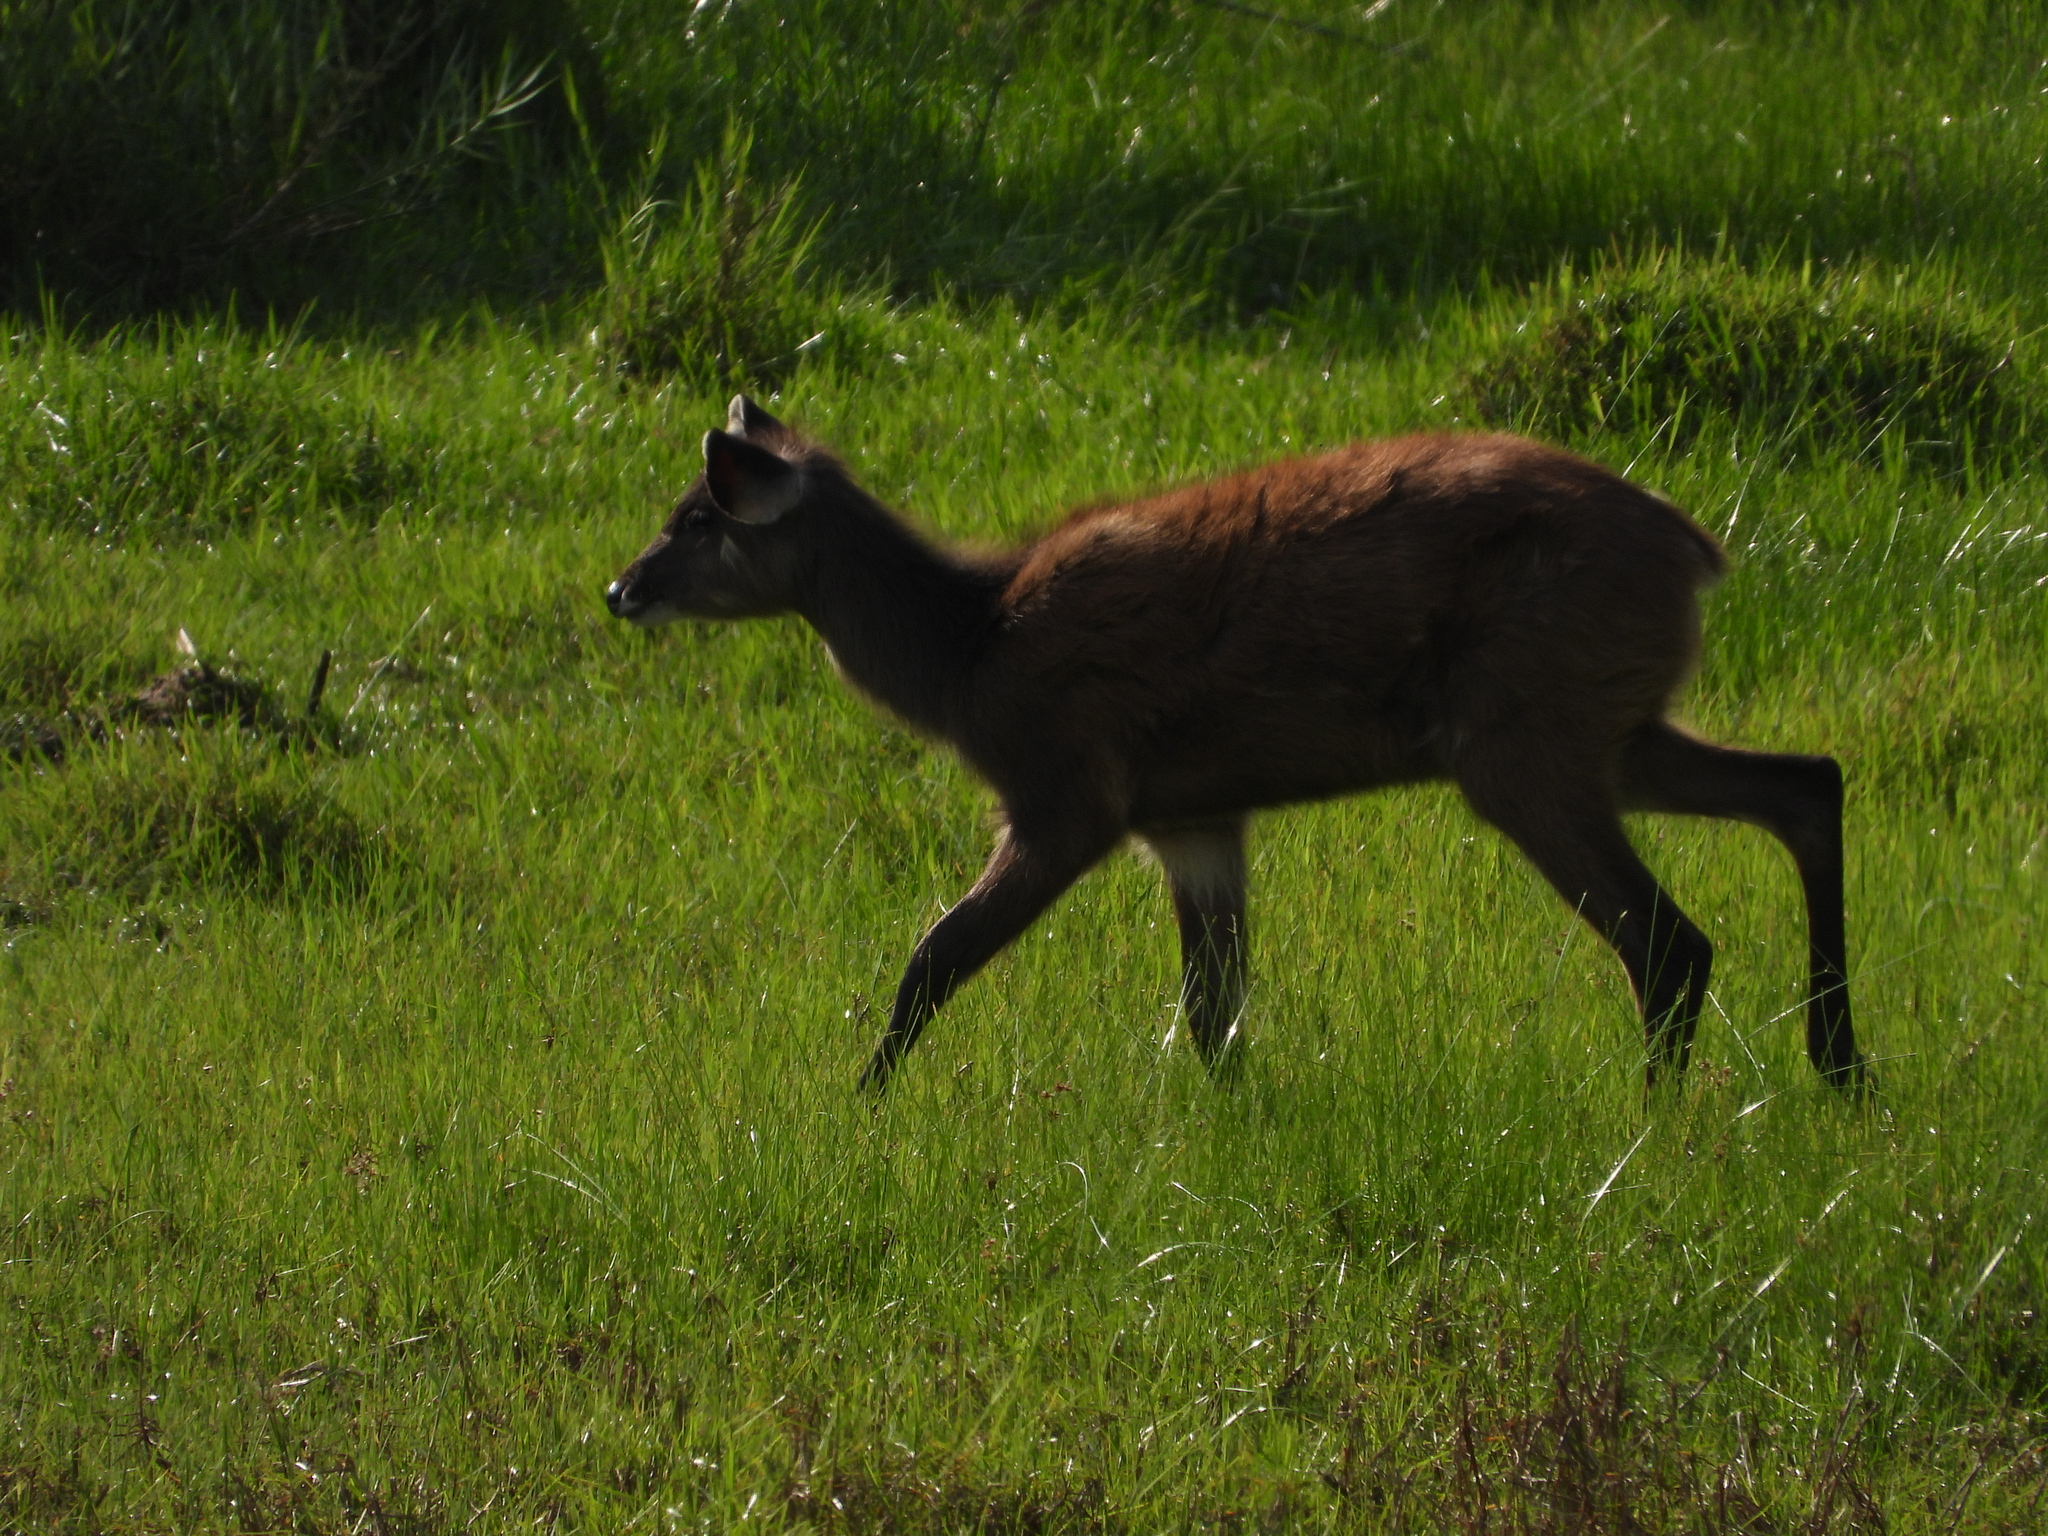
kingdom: Animalia
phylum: Chordata
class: Mammalia
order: Artiodactyla
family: Bovidae
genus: Tragelaphus
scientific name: Tragelaphus spekii
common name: Sitatunga
